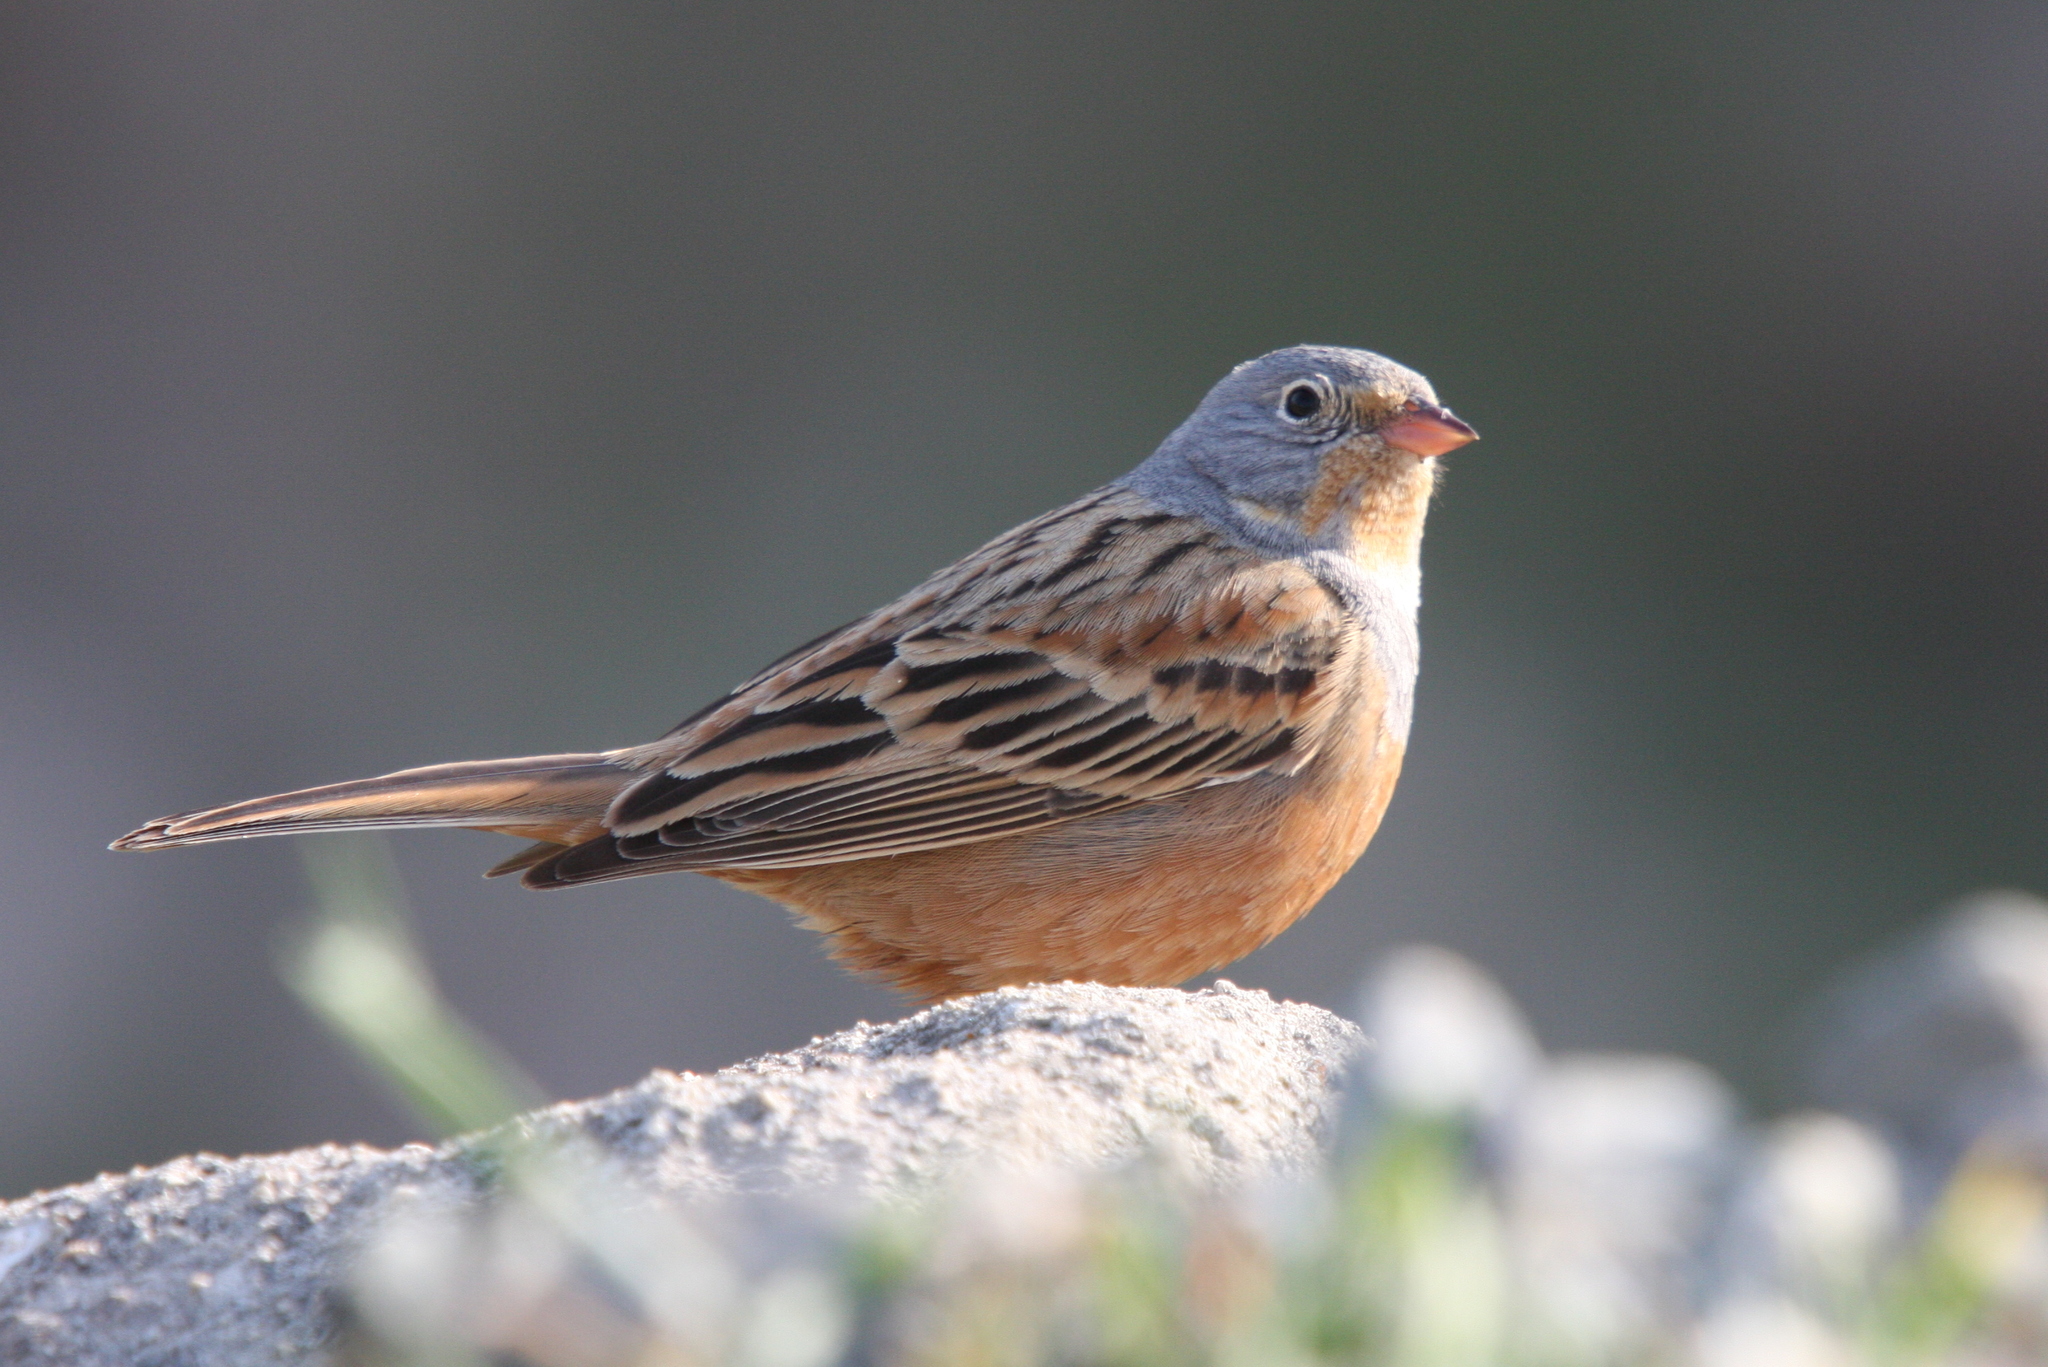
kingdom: Animalia
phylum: Chordata
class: Aves
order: Passeriformes
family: Emberizidae
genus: Emberiza
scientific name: Emberiza caesia
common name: Cretzschmar's bunting
